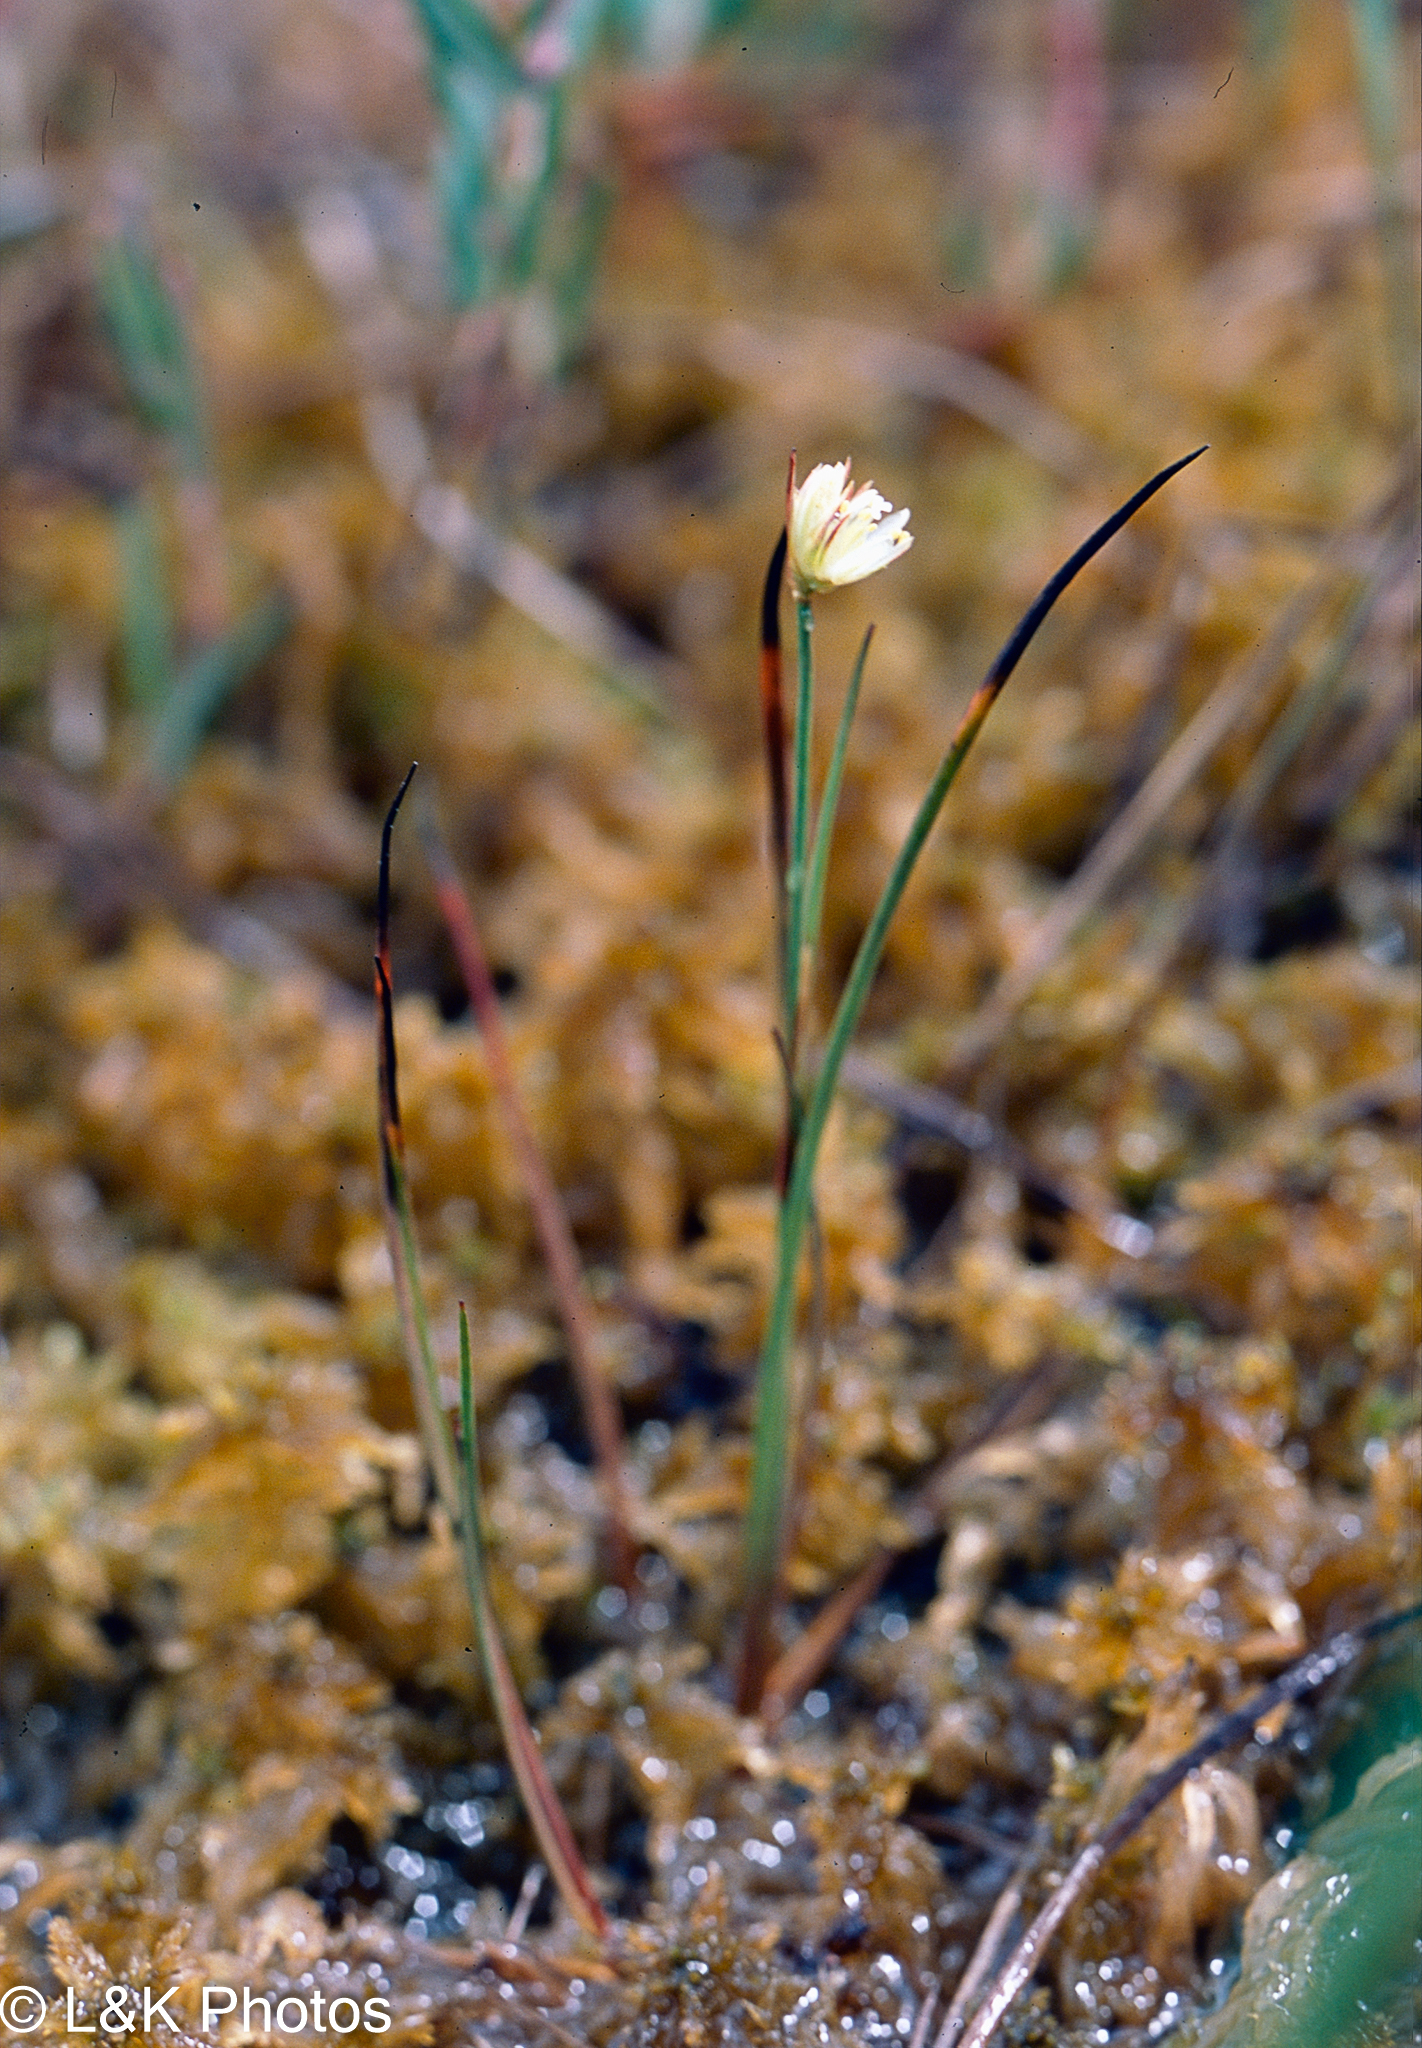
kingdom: Plantae
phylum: Tracheophyta
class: Liliopsida
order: Poales
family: Juncaceae
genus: Juncus
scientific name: Juncus stygius
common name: Bog rush
